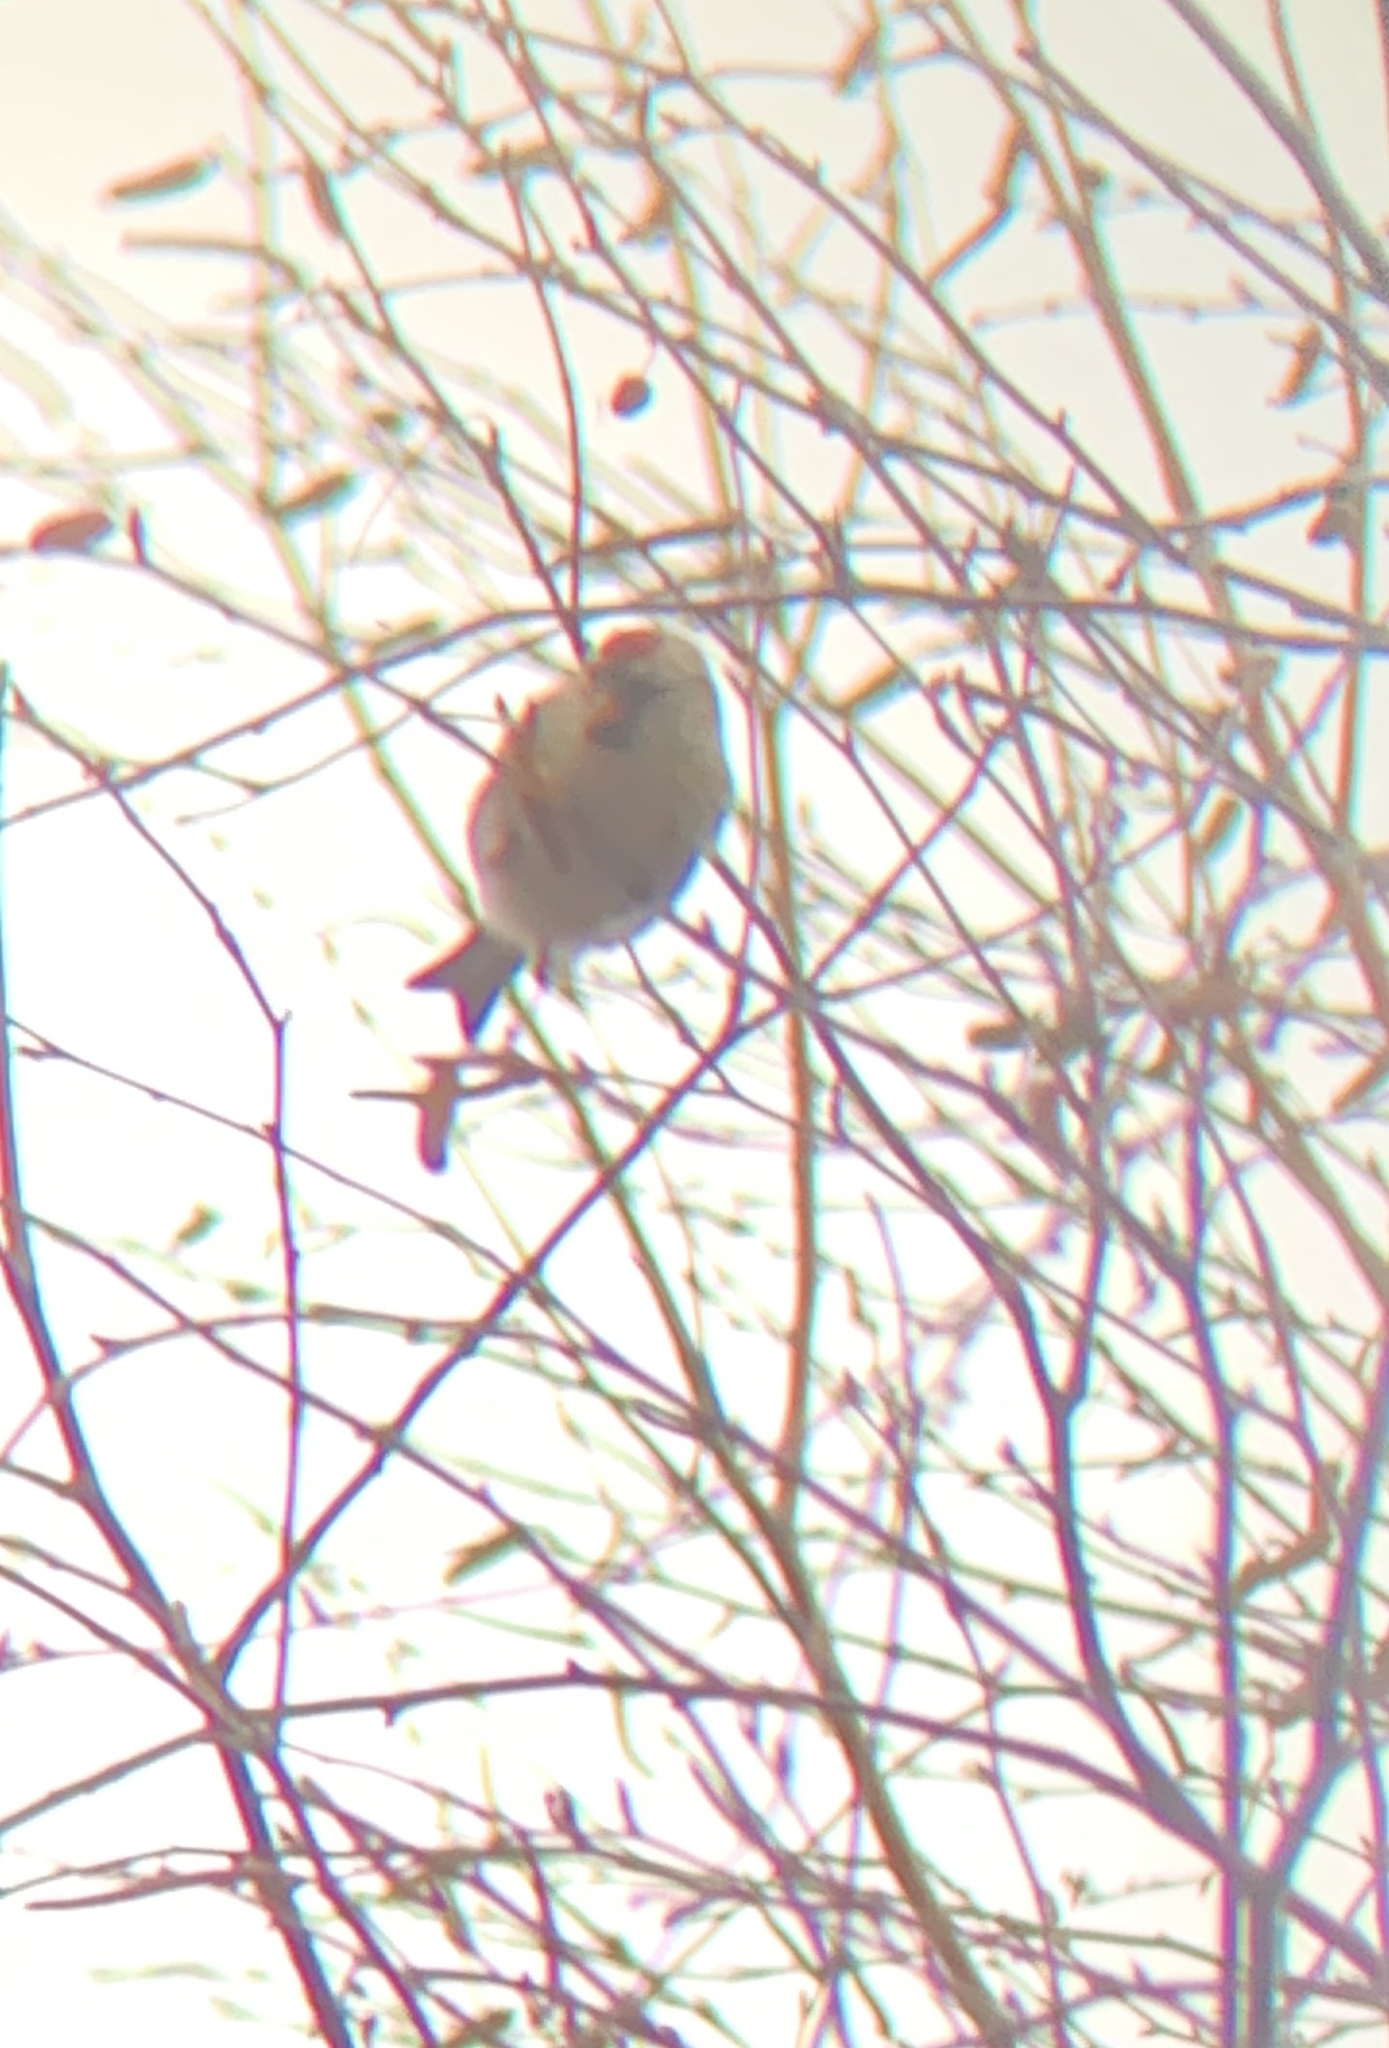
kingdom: Animalia
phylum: Chordata
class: Aves
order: Passeriformes
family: Fringillidae
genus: Acanthis
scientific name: Acanthis flammea
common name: Common redpoll
